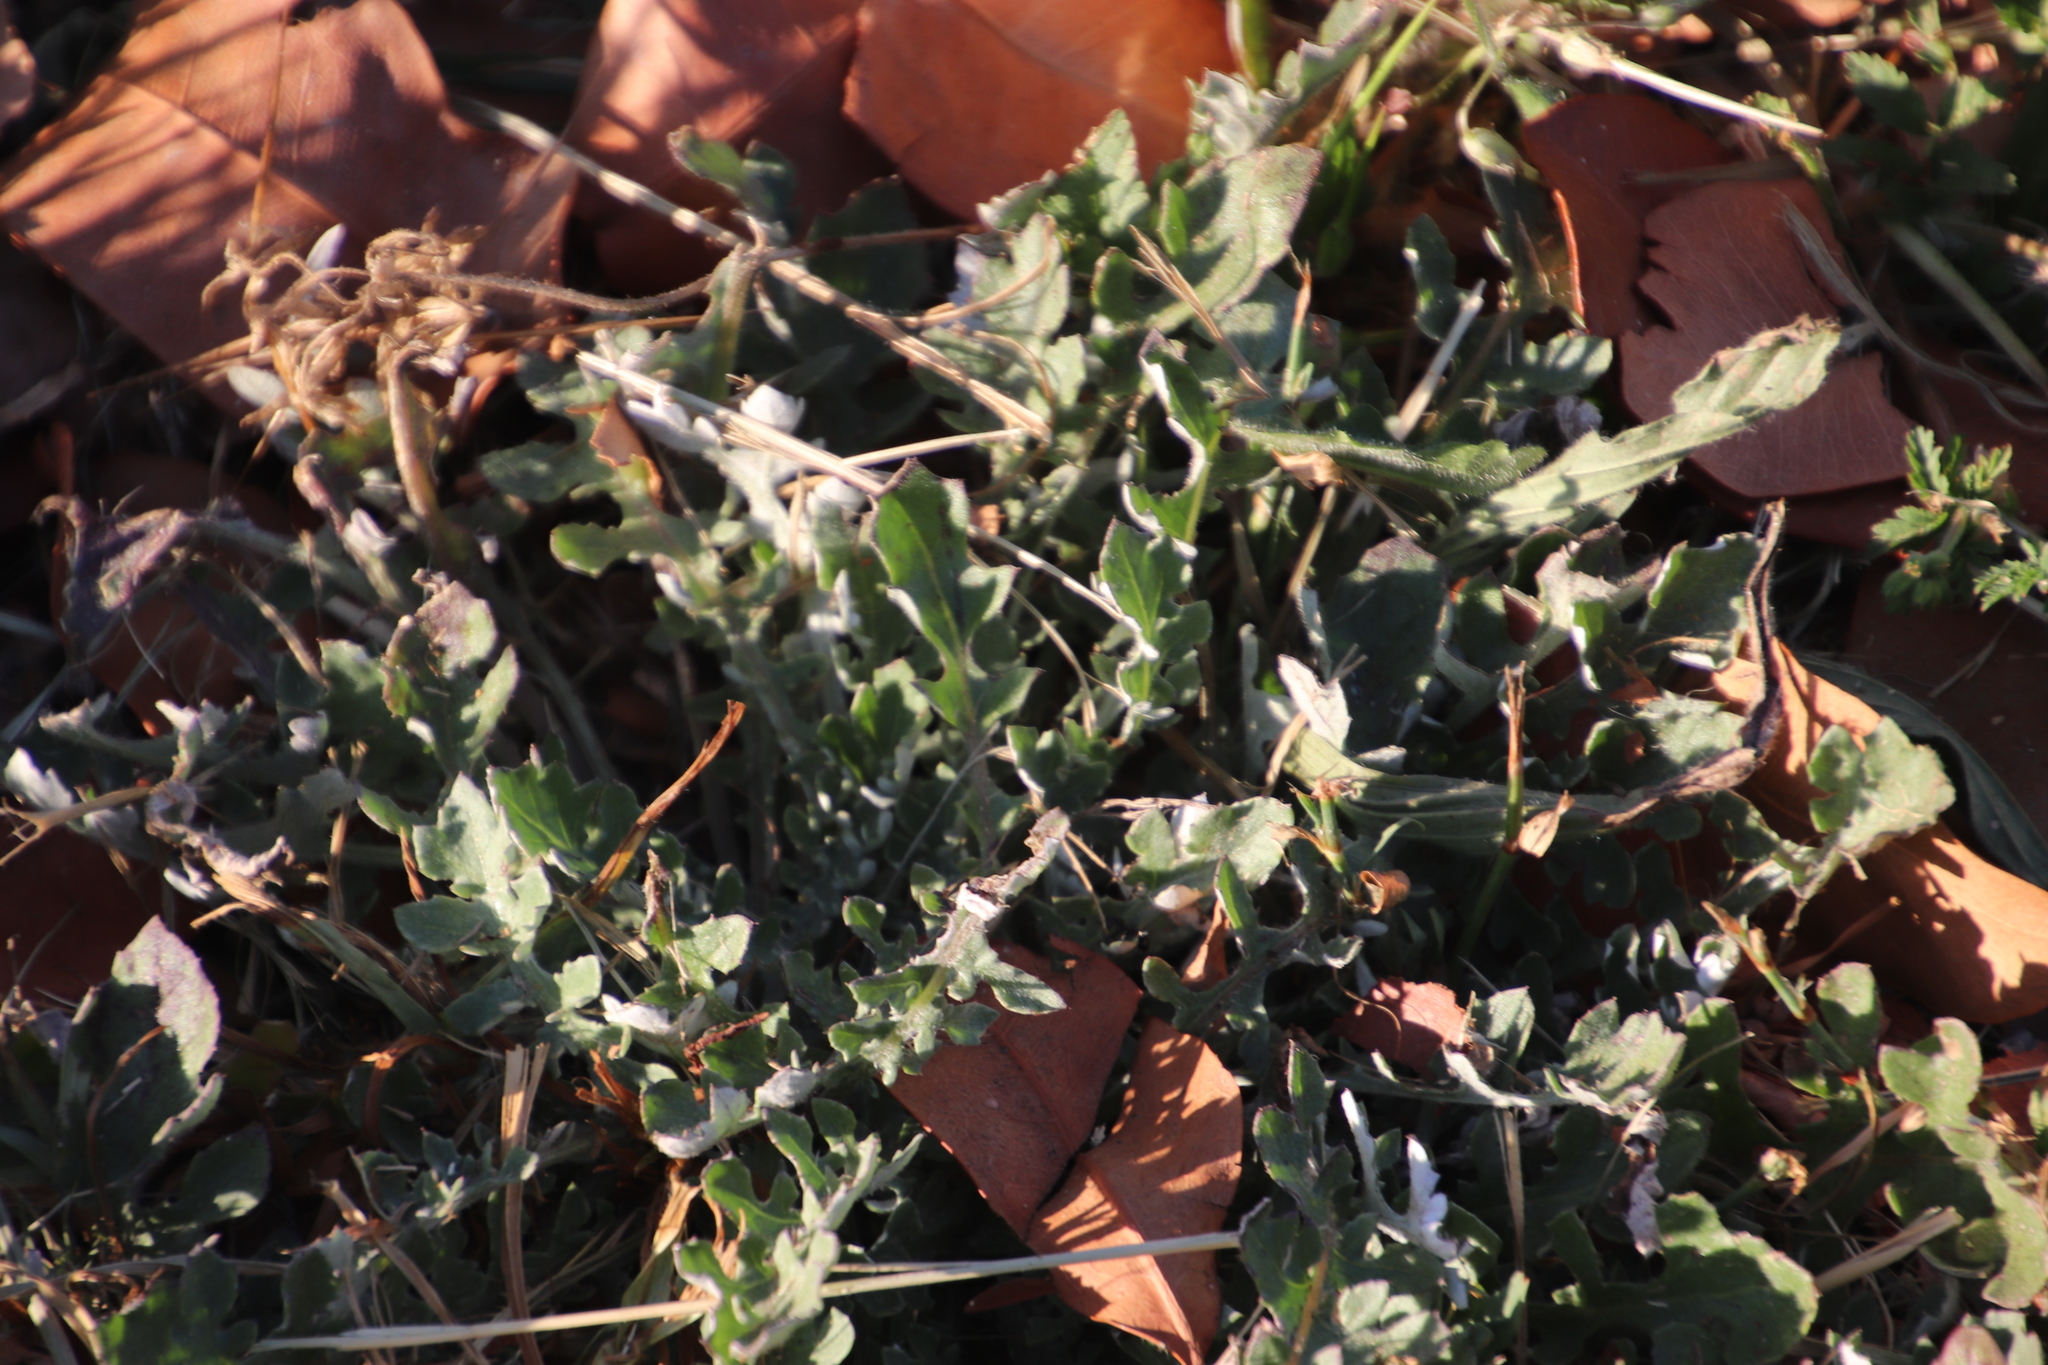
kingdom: Plantae
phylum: Tracheophyta
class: Magnoliopsida
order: Asterales
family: Asteraceae
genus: Arctotheca
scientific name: Arctotheca calendula
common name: Capeweed
